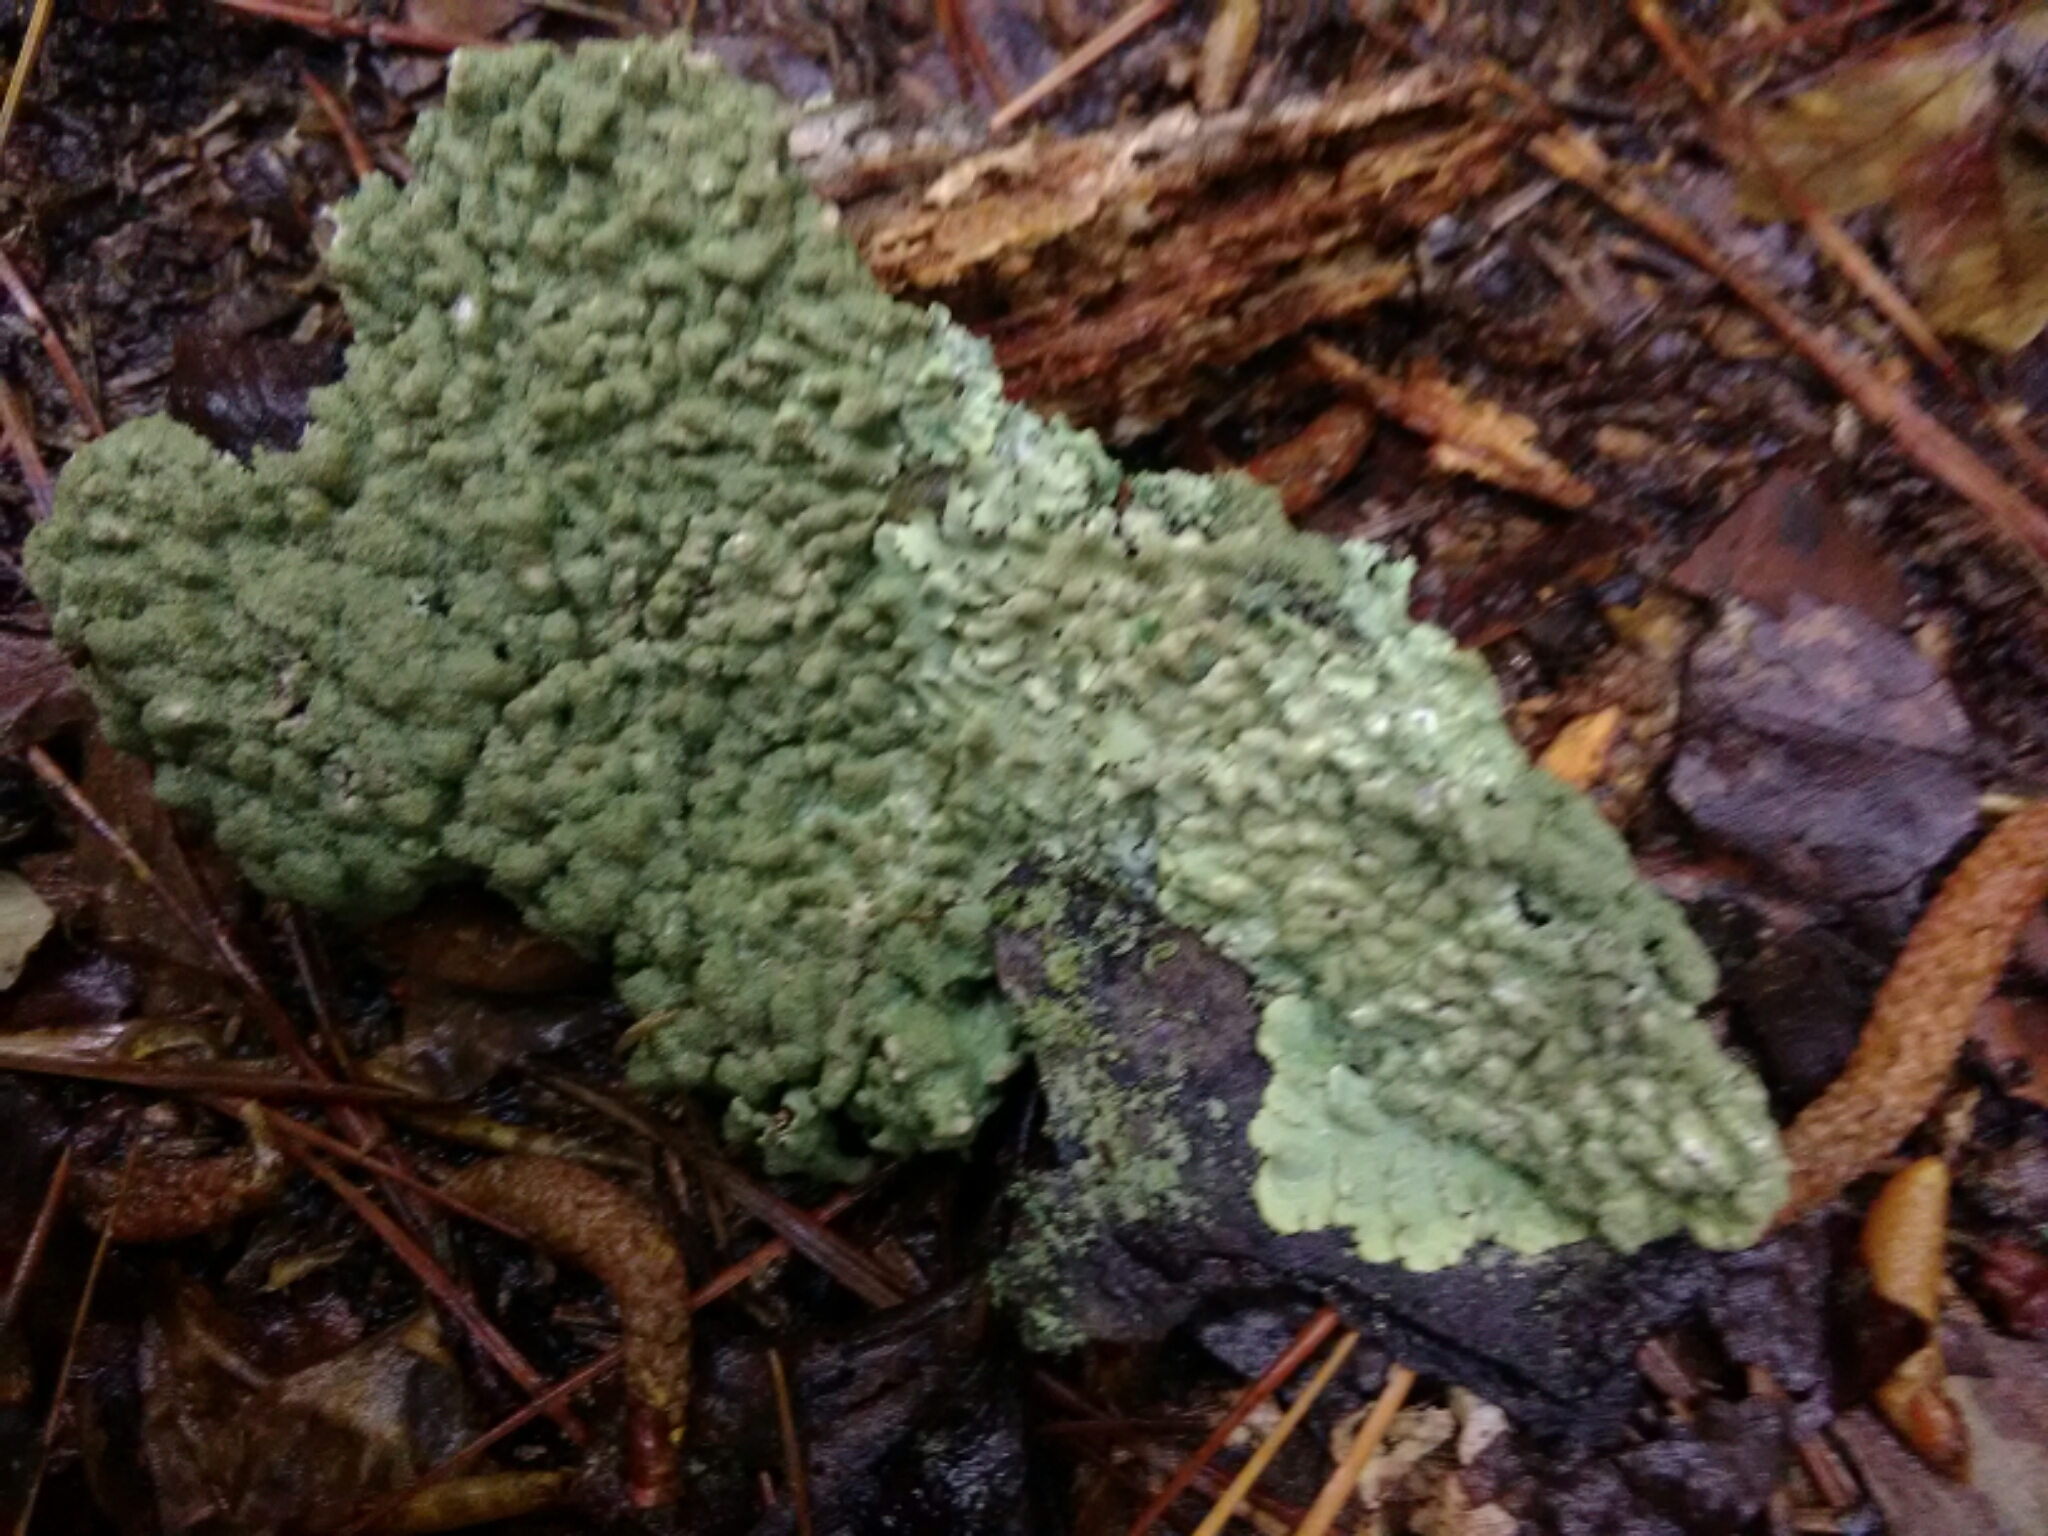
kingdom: Fungi
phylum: Ascomycota
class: Lecanoromycetes
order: Lecanorales
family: Parmeliaceae
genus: Flavoparmelia
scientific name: Flavoparmelia caperata
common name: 40-mile per hour lichen
